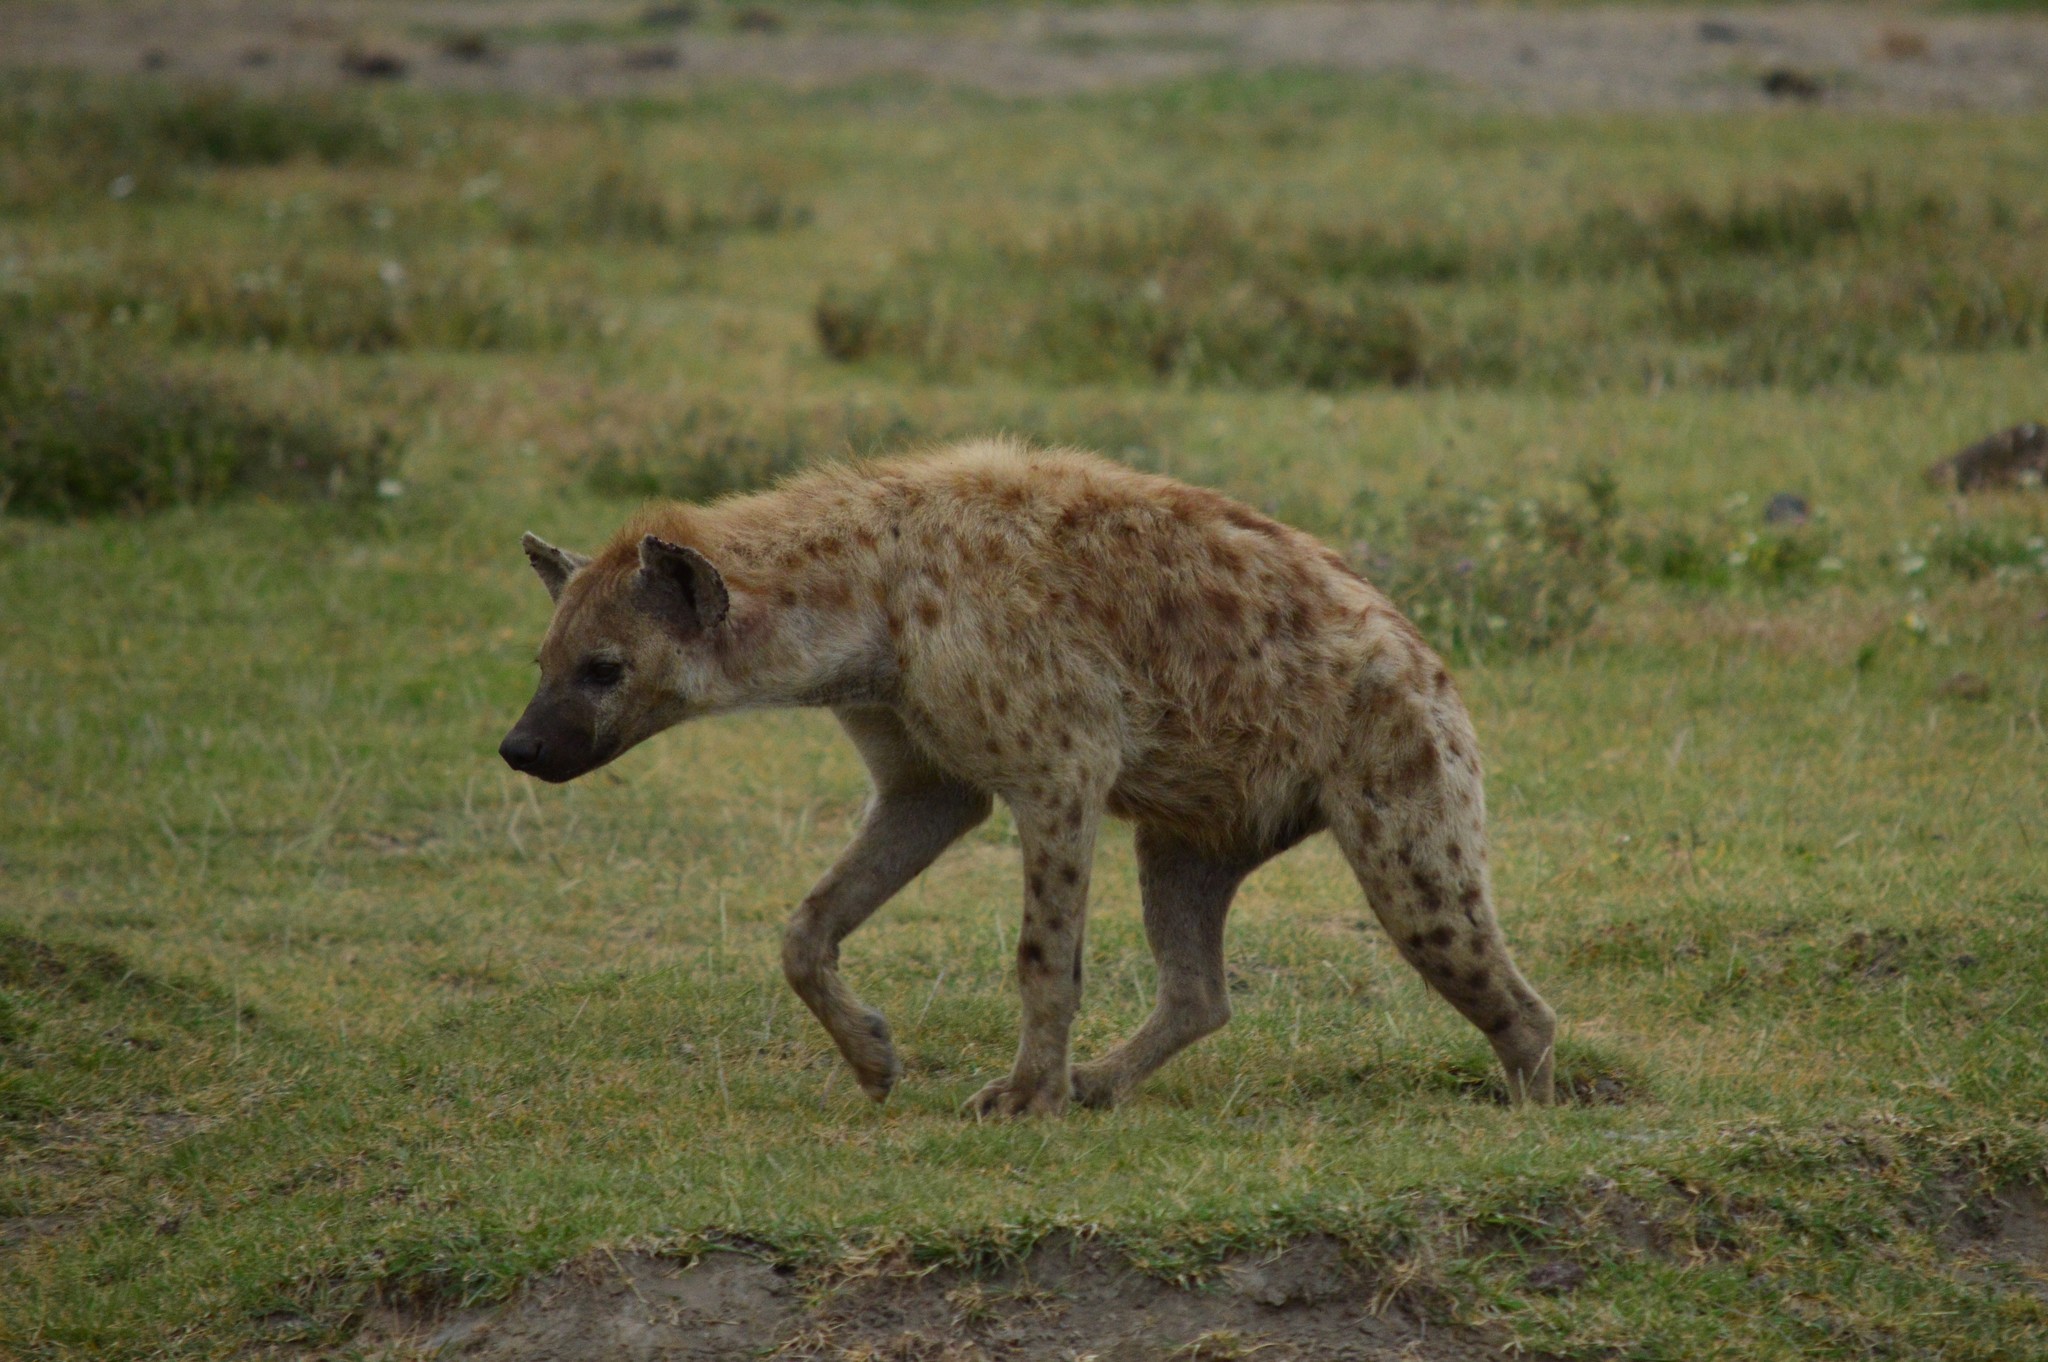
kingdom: Animalia
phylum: Chordata
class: Mammalia
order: Carnivora
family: Hyaenidae
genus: Crocuta
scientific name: Crocuta crocuta
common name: Spotted hyaena
